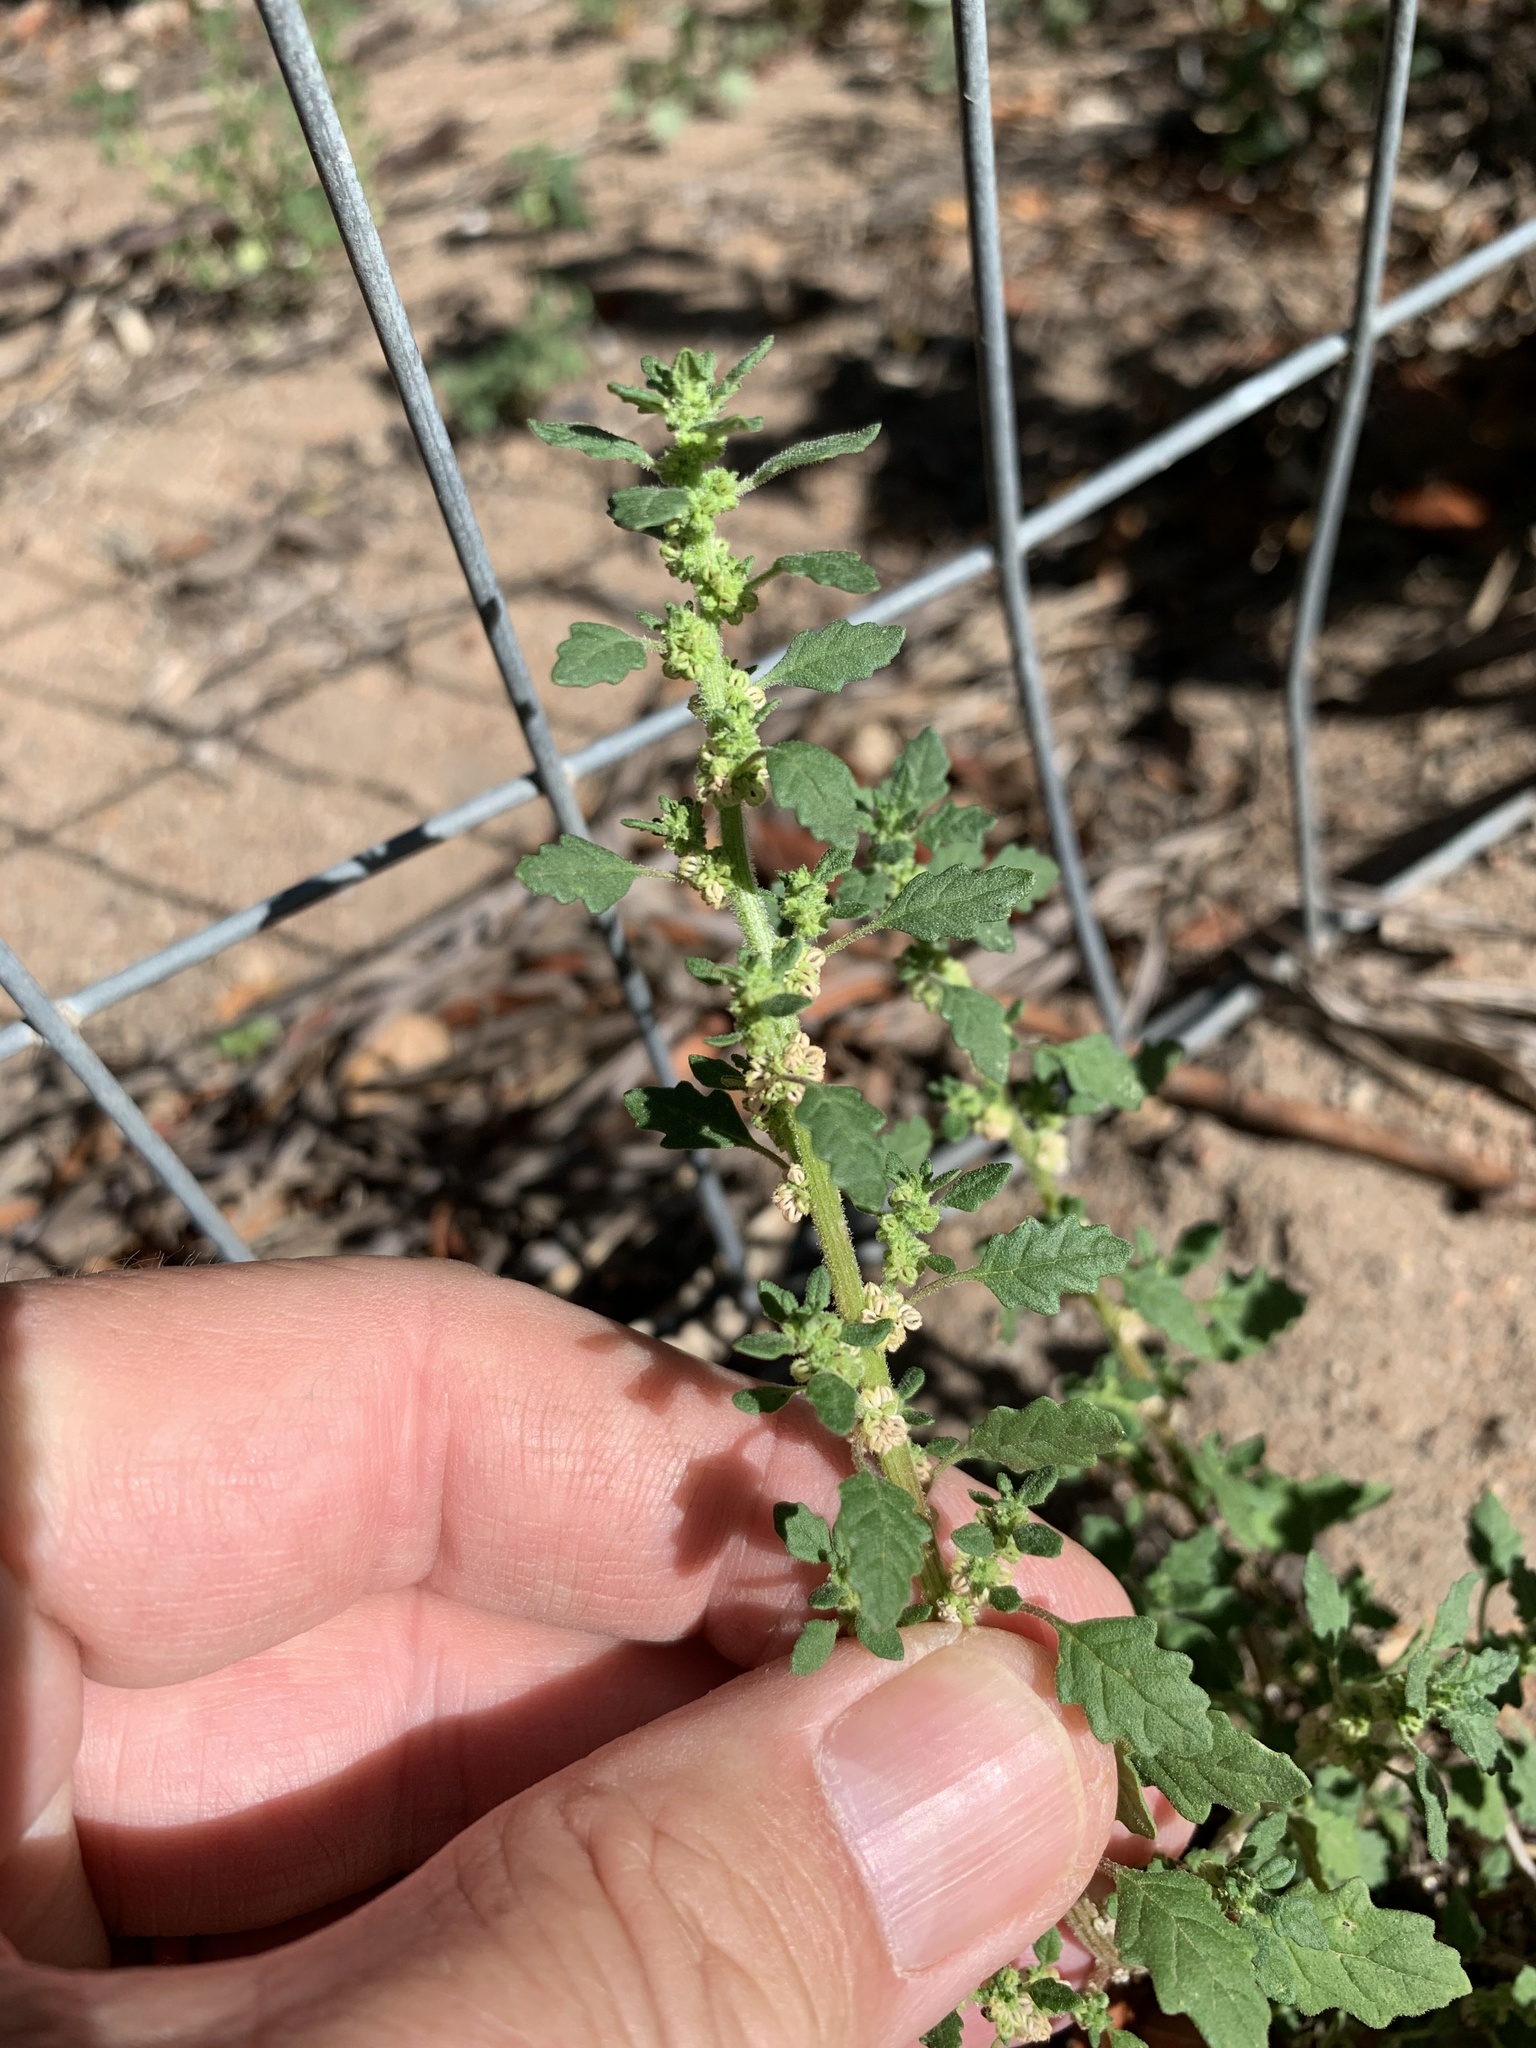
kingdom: Plantae
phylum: Tracheophyta
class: Magnoliopsida
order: Caryophyllales
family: Amaranthaceae
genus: Dysphania
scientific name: Dysphania pumilio
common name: Clammy goosefoot
